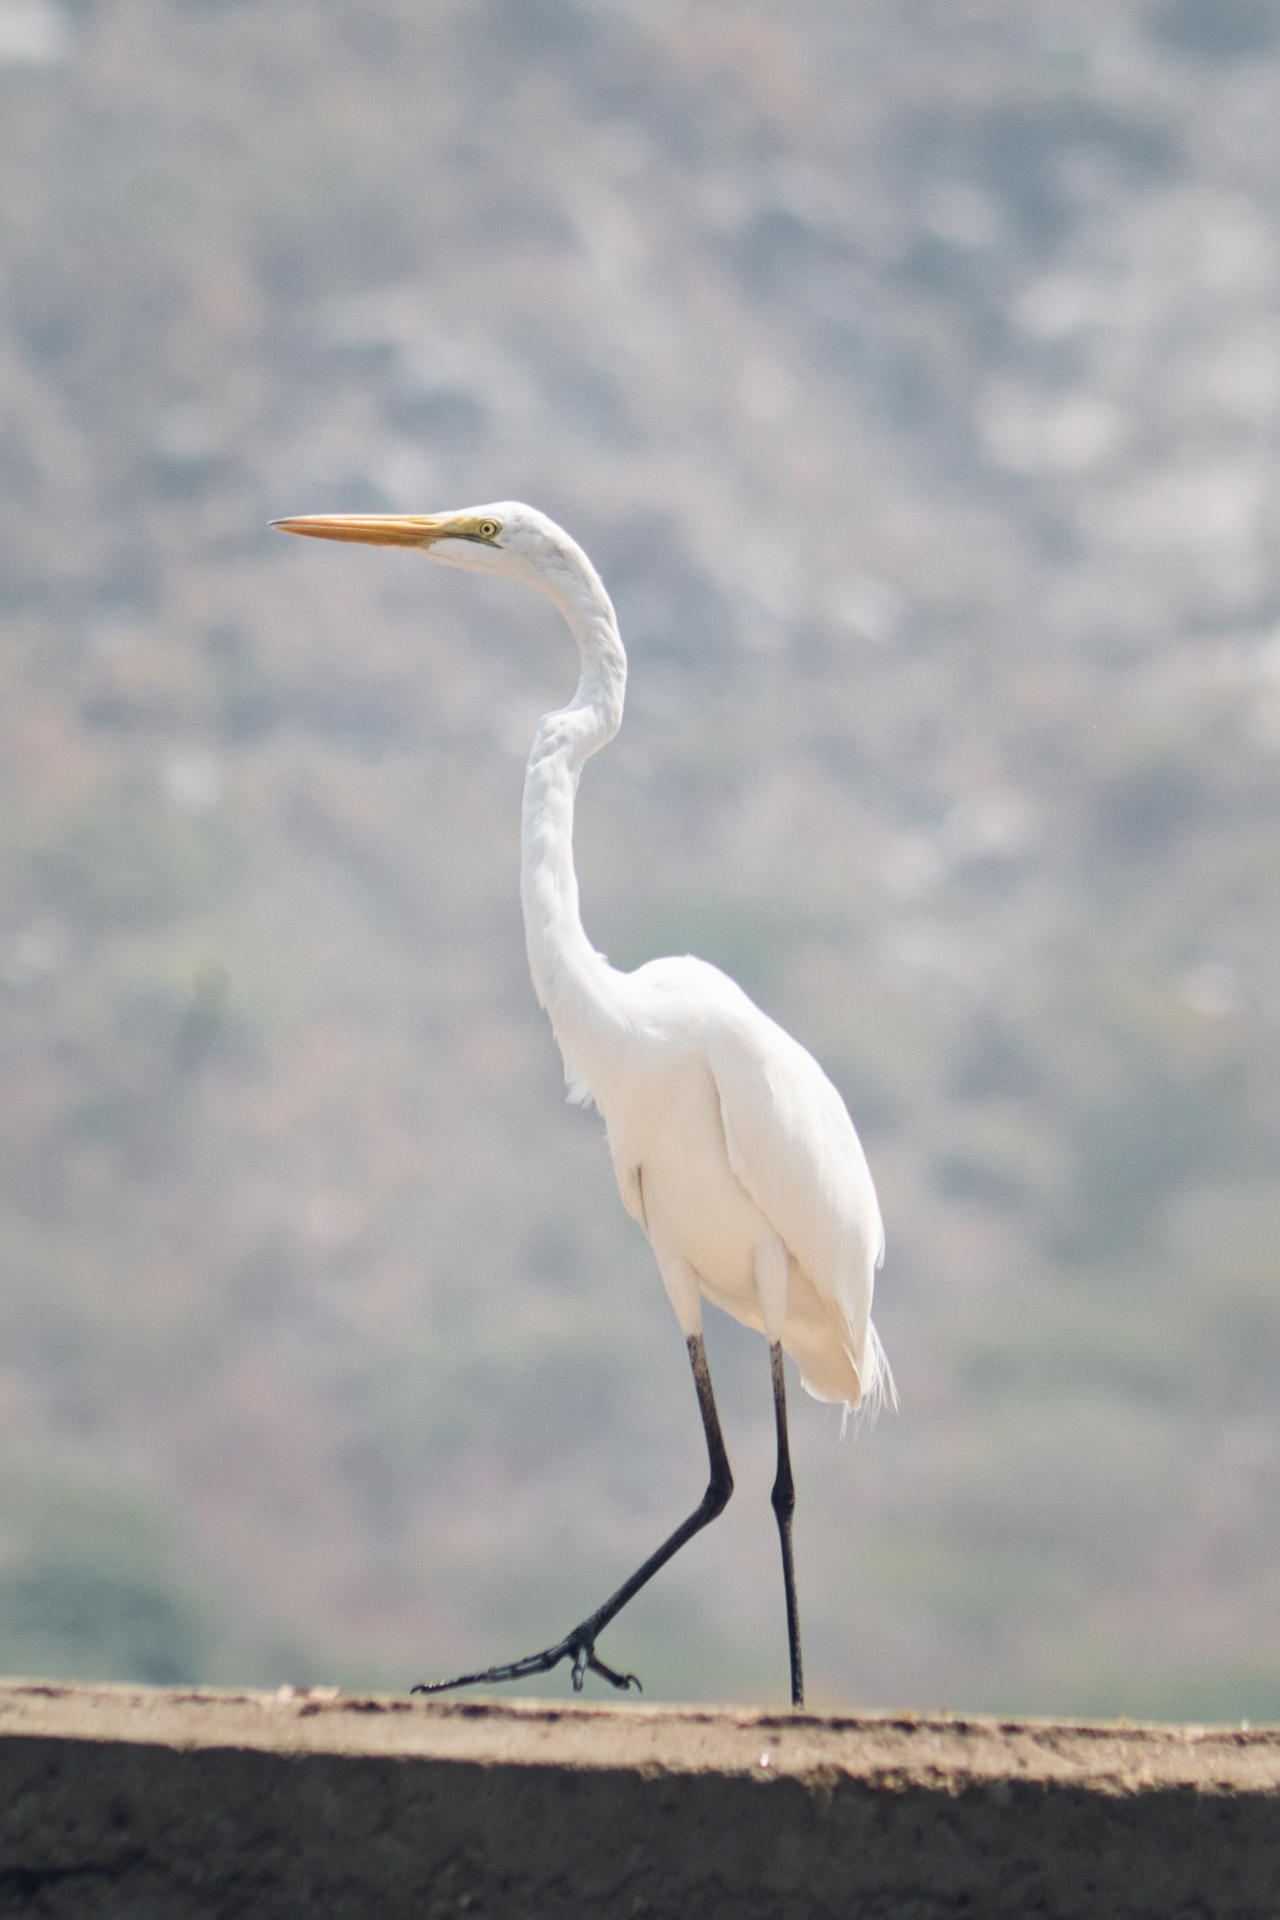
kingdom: Animalia
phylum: Chordata
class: Aves
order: Pelecaniformes
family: Ardeidae
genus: Ardea
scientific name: Ardea alba
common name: Great egret
